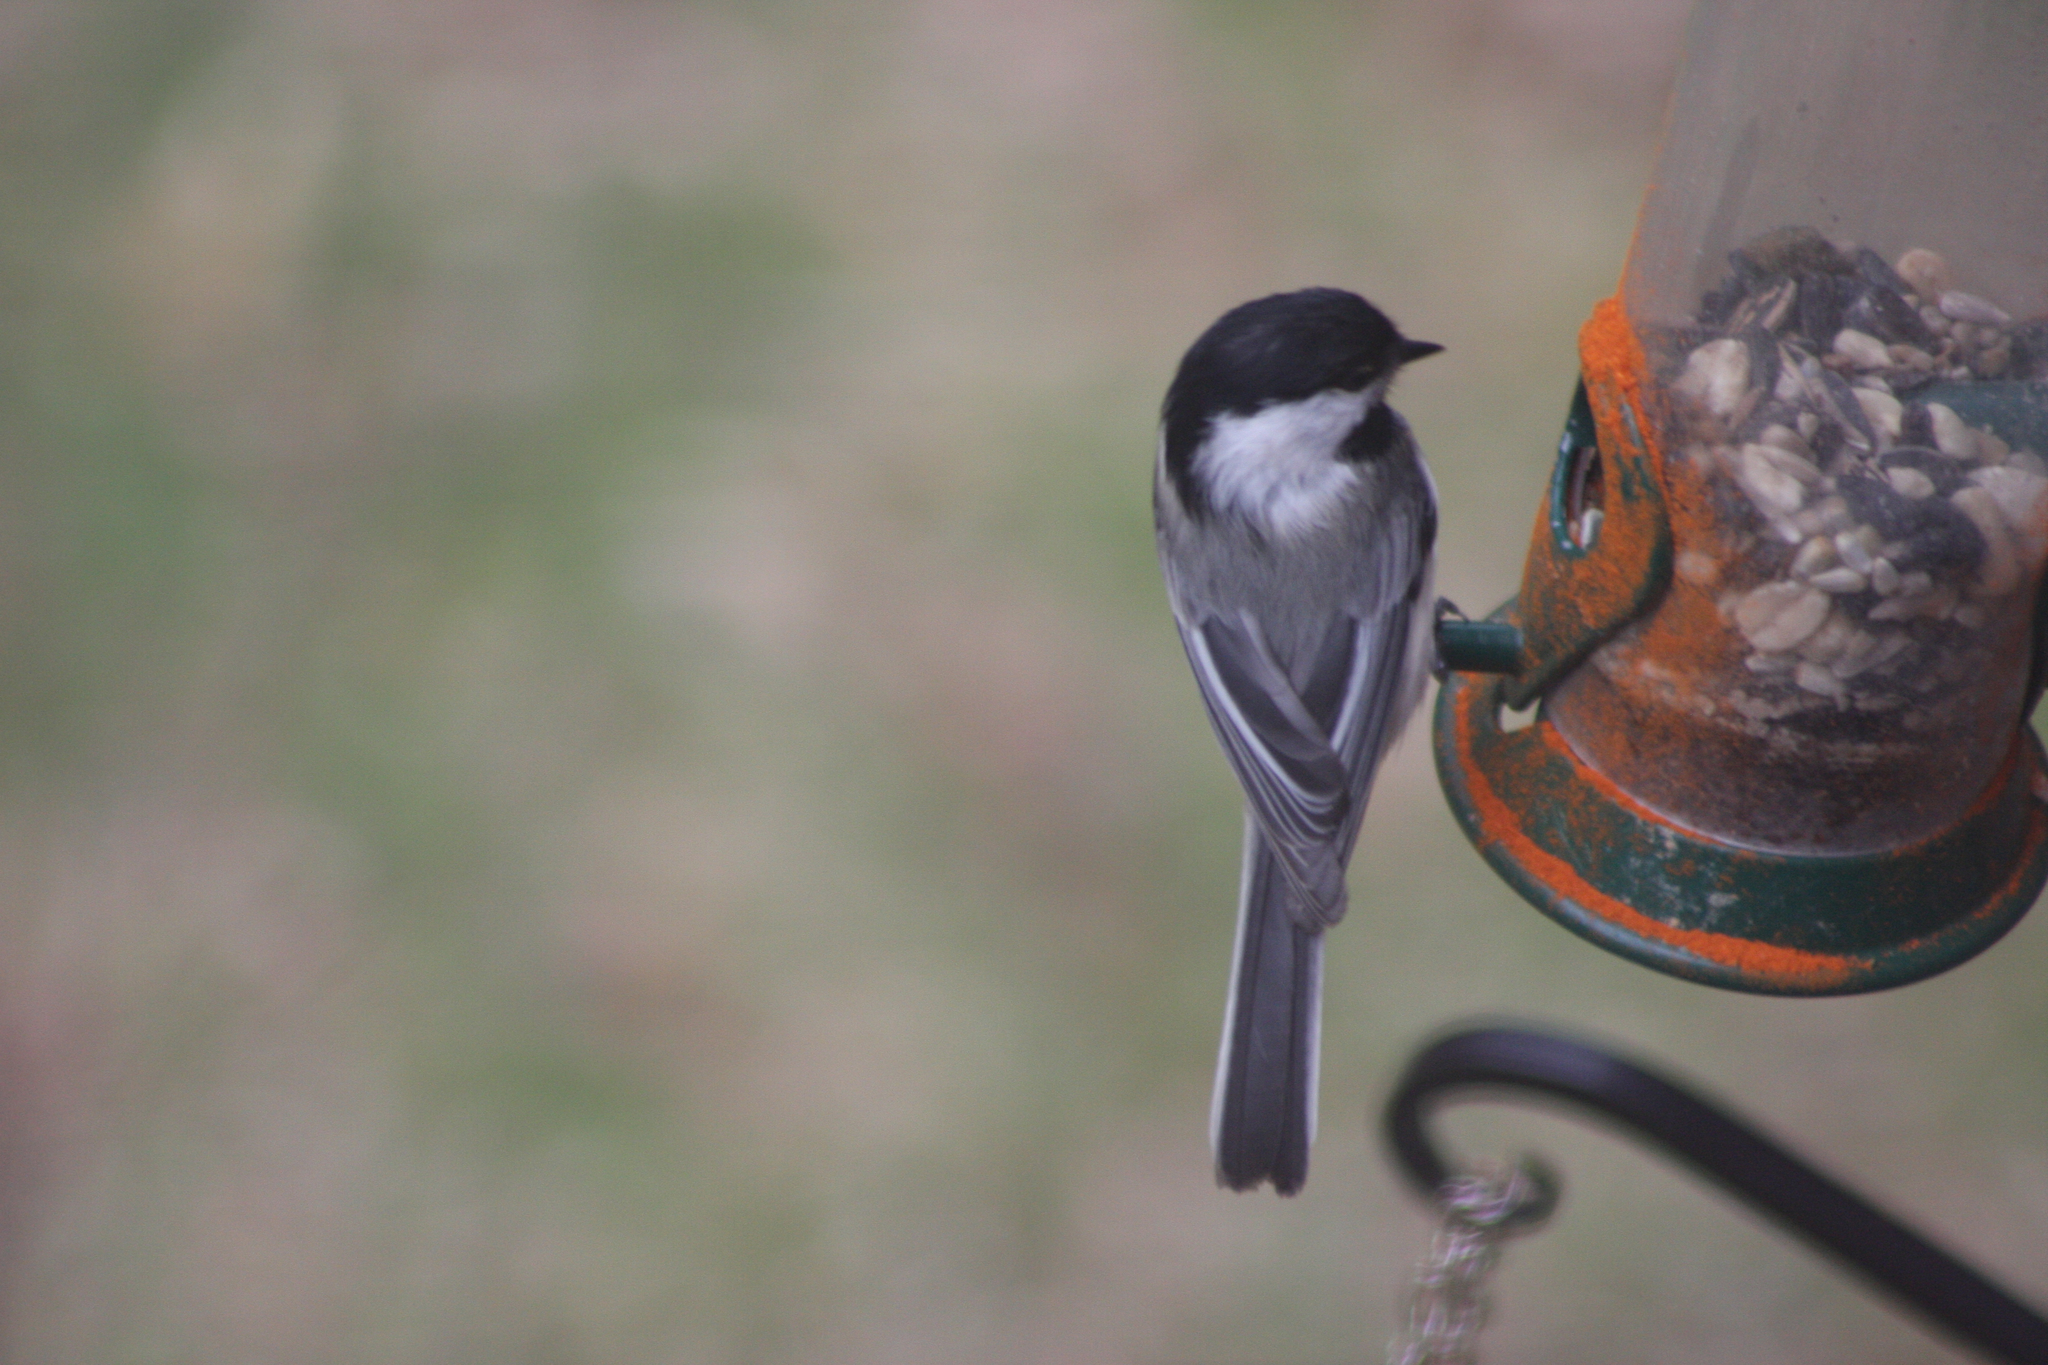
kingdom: Animalia
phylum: Chordata
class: Aves
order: Passeriformes
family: Paridae
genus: Poecile
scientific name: Poecile atricapillus
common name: Black-capped chickadee
